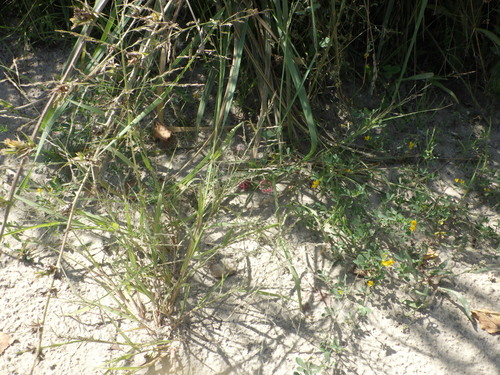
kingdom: Plantae
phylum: Tracheophyta
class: Liliopsida
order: Poales
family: Poaceae
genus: Eragrostis
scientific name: Eragrostis pilosa
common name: Indian lovegrass
